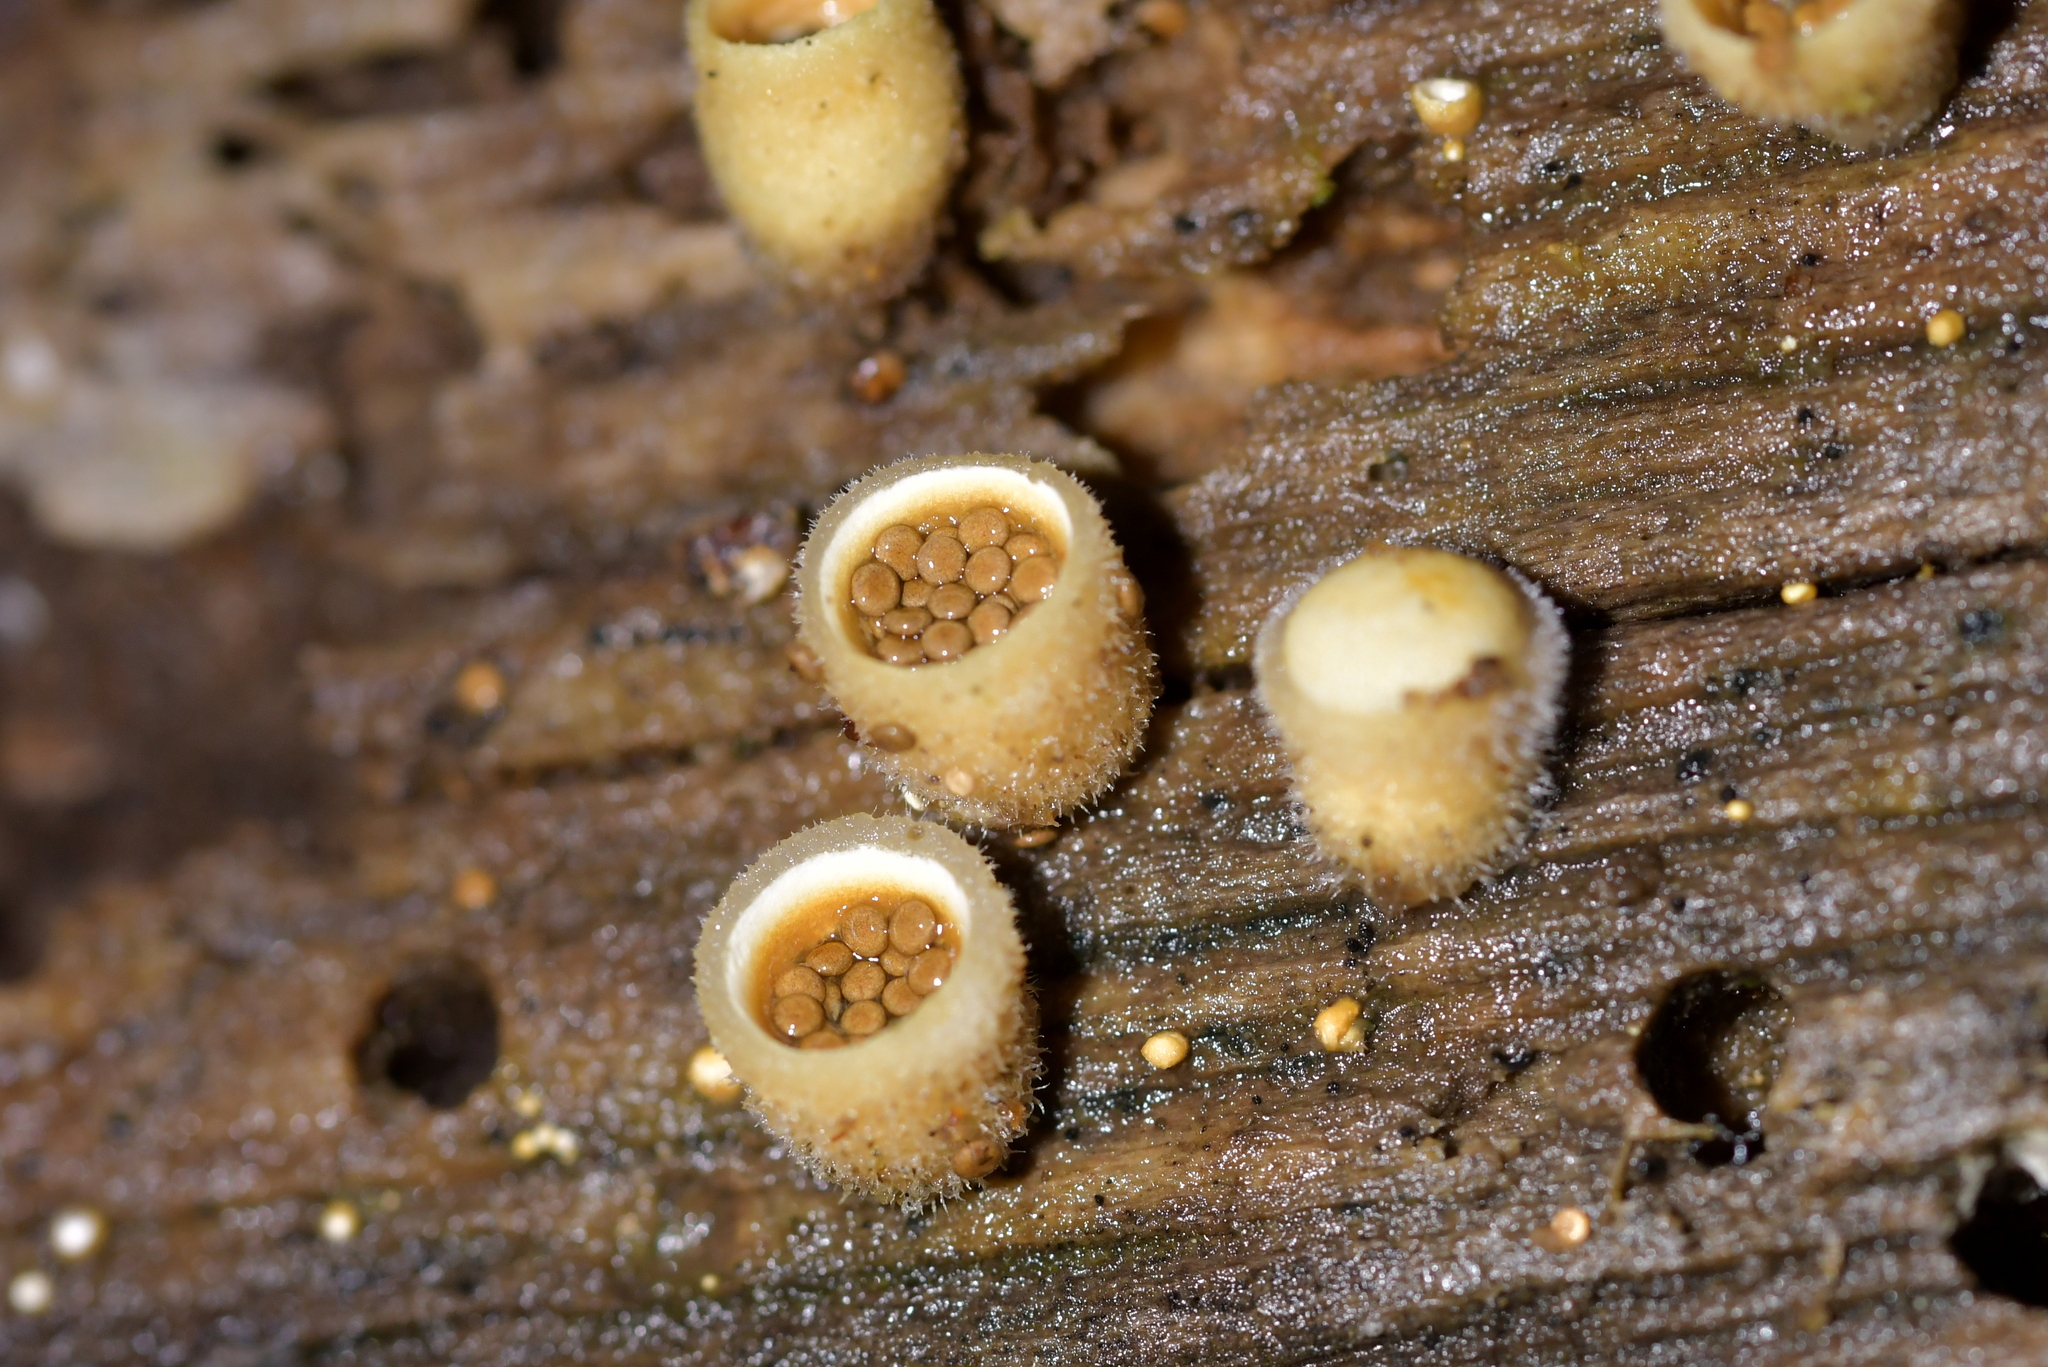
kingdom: Fungi
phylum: Basidiomycota
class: Agaricomycetes
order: Agaricales
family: Agaricaceae
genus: Nidula
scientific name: Nidula niveotomentosa
